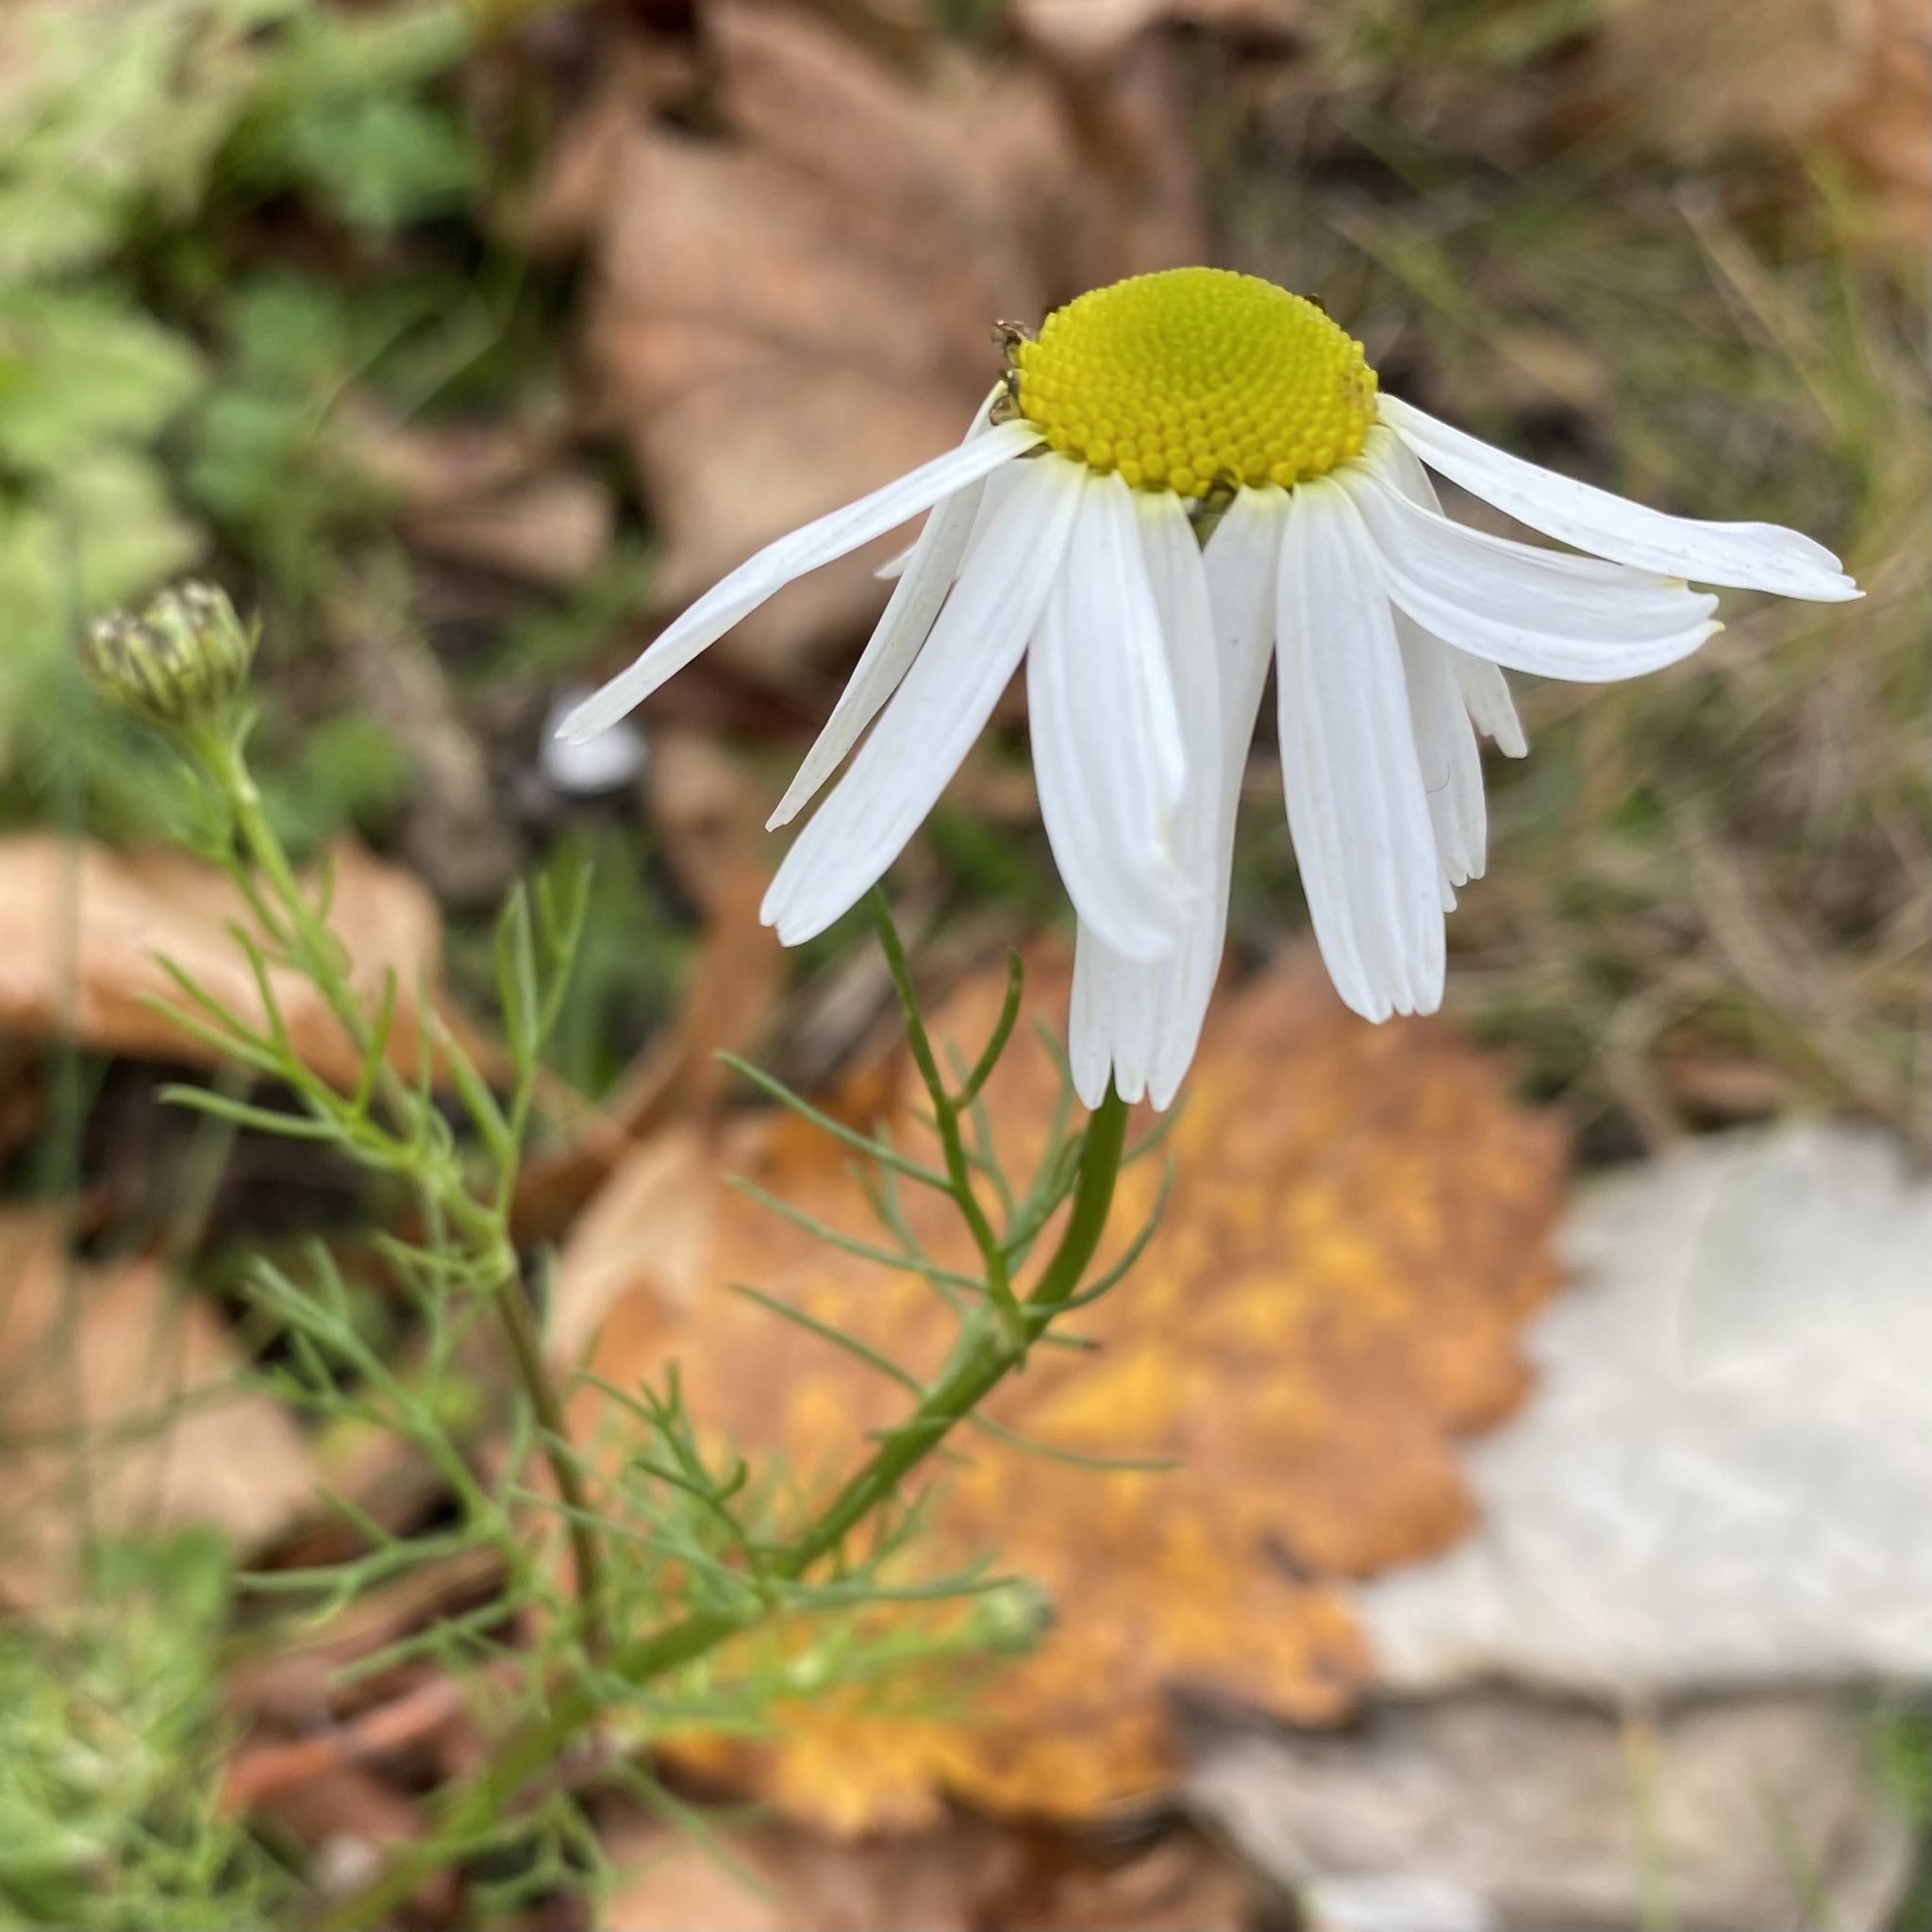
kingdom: Plantae
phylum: Tracheophyta
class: Magnoliopsida
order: Asterales
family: Asteraceae
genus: Tripleurospermum
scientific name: Tripleurospermum inodorum
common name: Scentless mayweed
